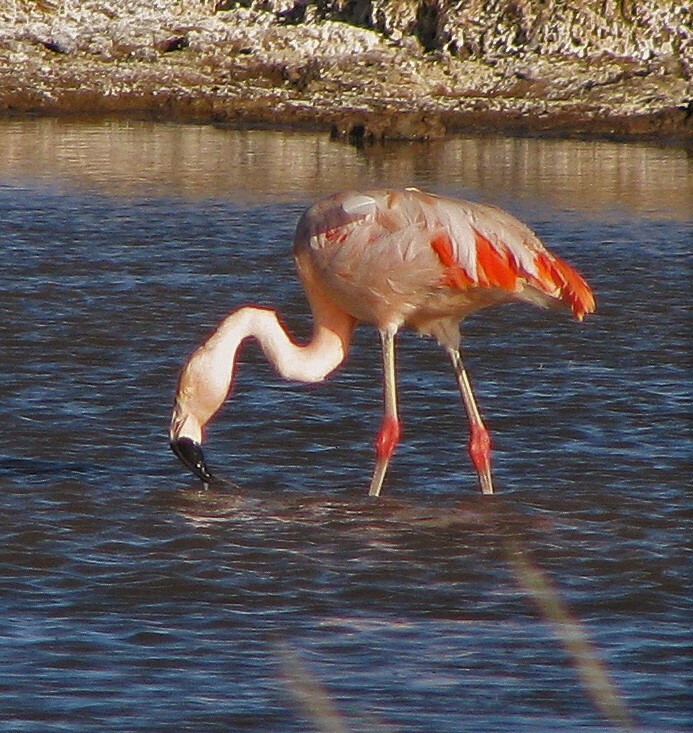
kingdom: Animalia
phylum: Chordata
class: Aves
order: Phoenicopteriformes
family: Phoenicopteridae
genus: Phoenicopterus
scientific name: Phoenicopterus chilensis
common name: Chilean flamingo
